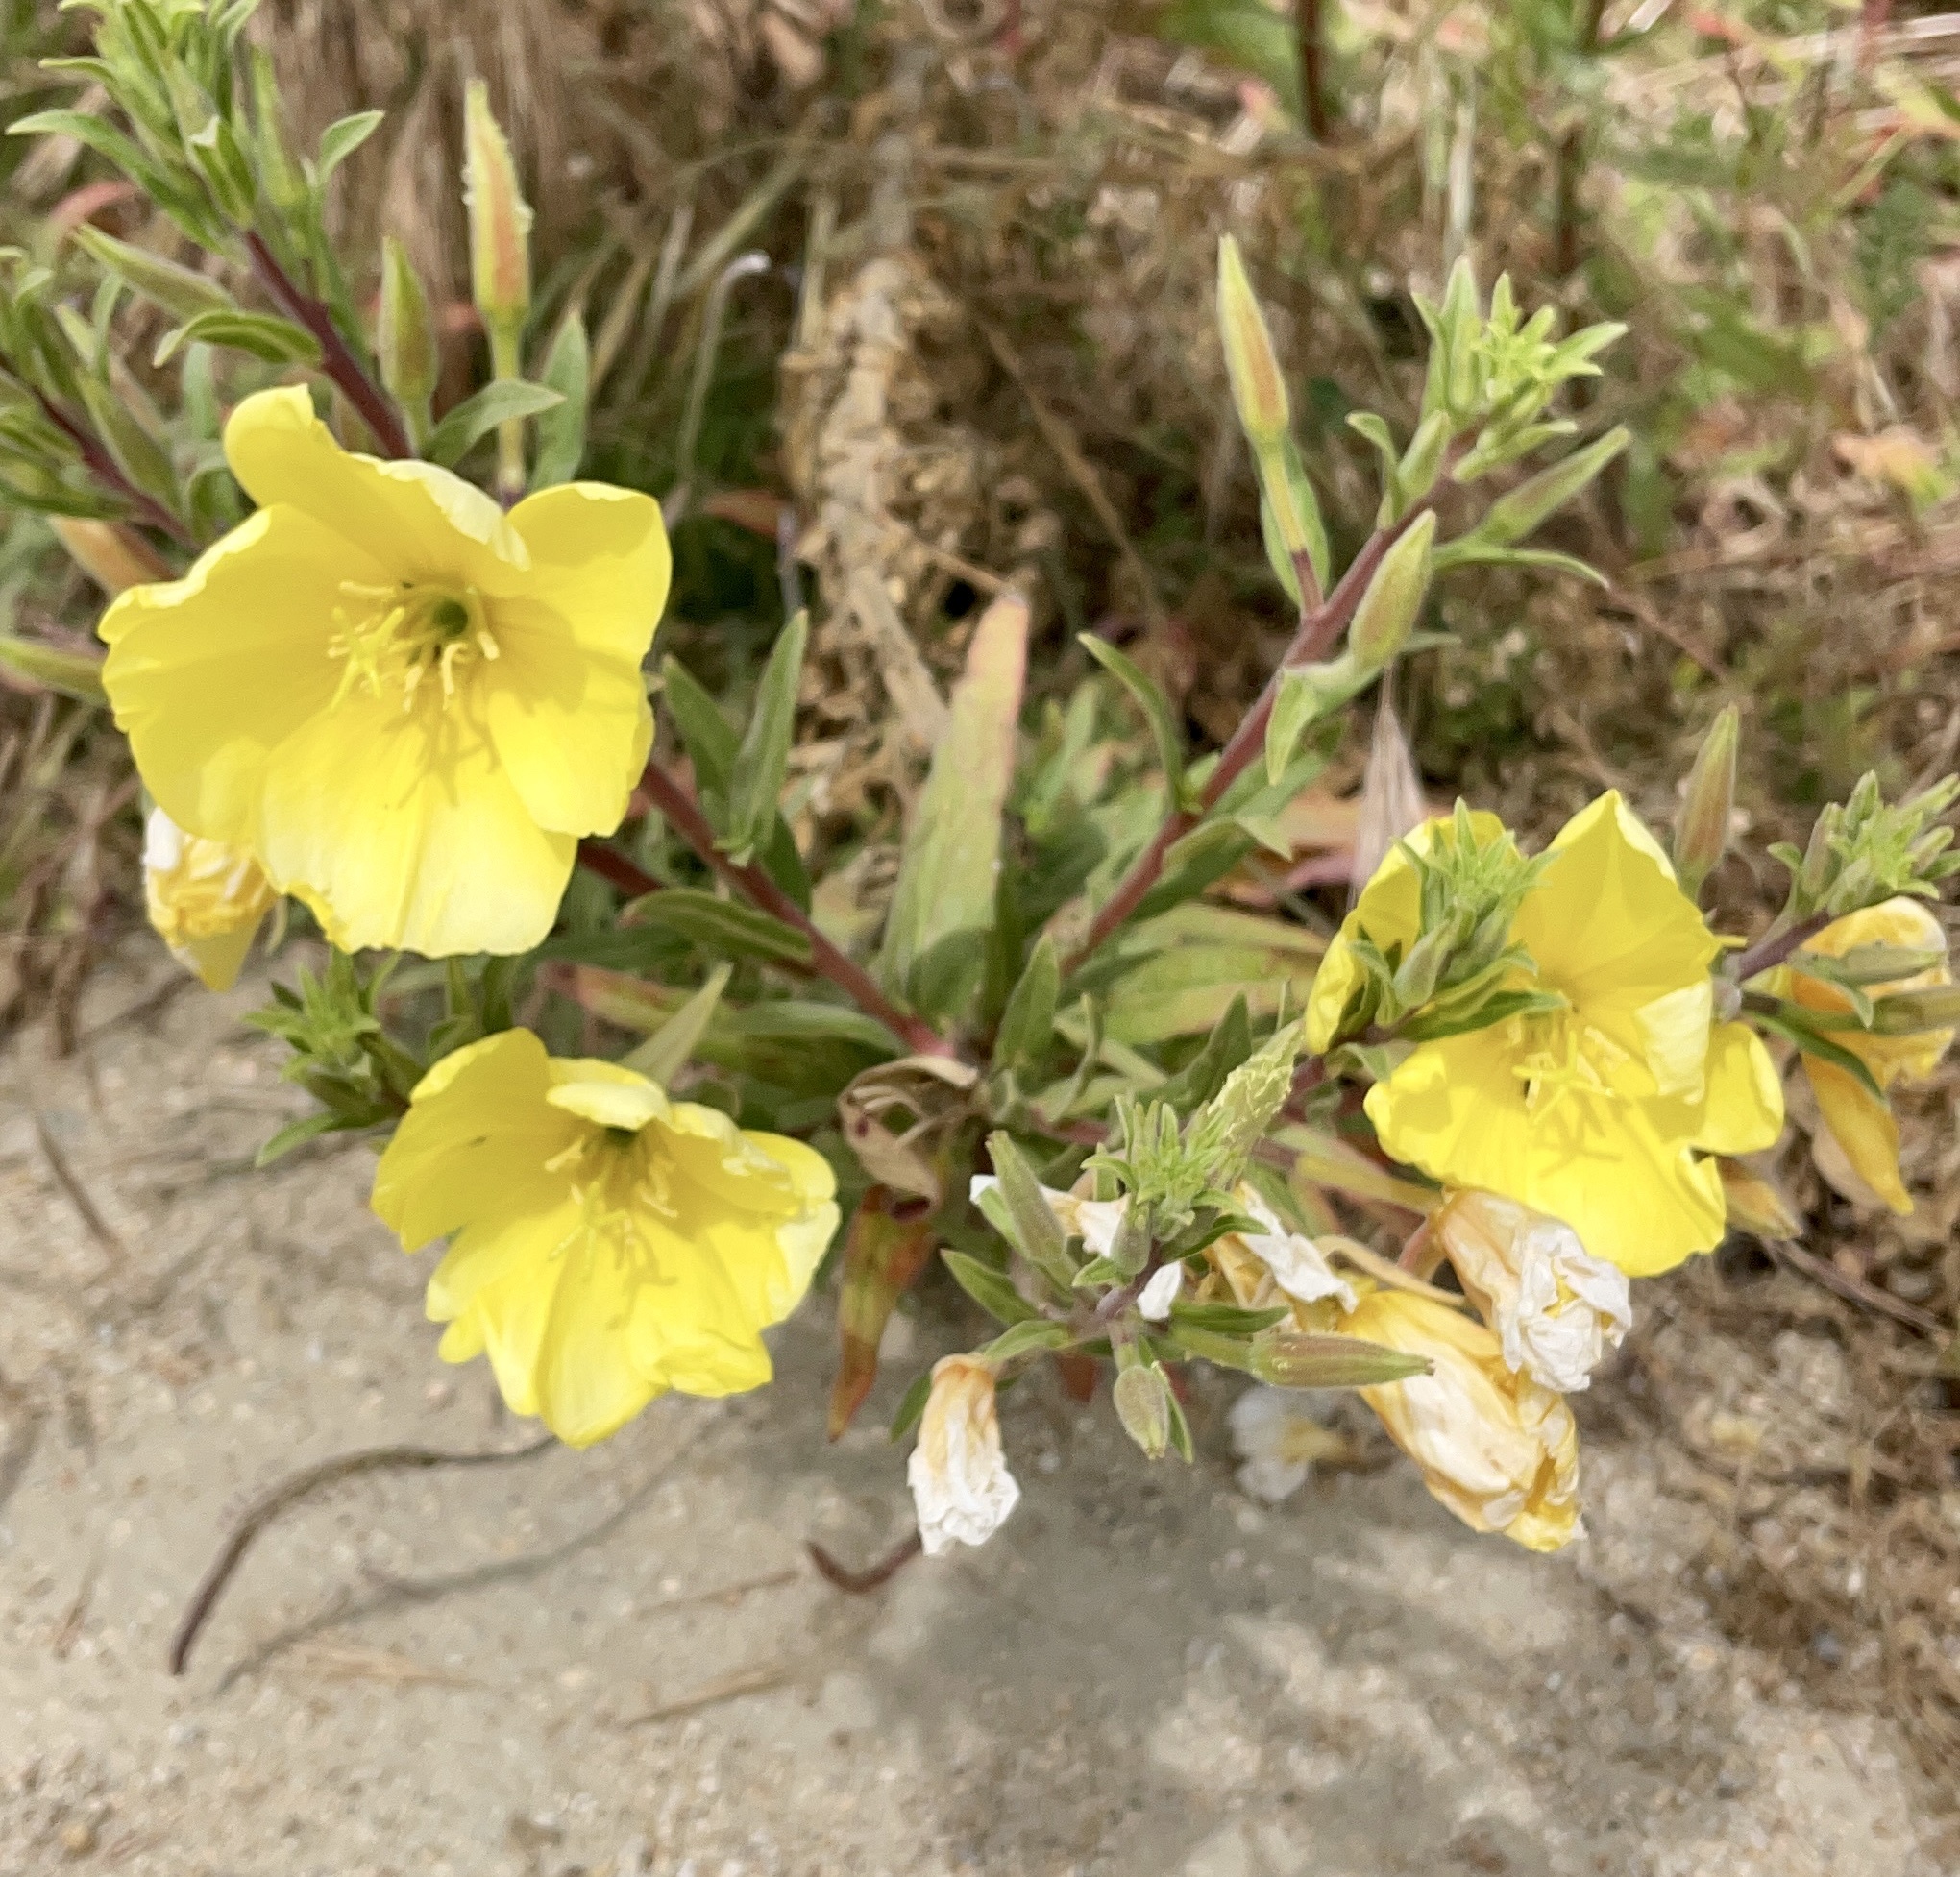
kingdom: Plantae
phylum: Tracheophyta
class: Magnoliopsida
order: Myrtales
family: Onagraceae
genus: Oenothera
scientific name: Oenothera elata
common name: Hooker's evening-primrose
